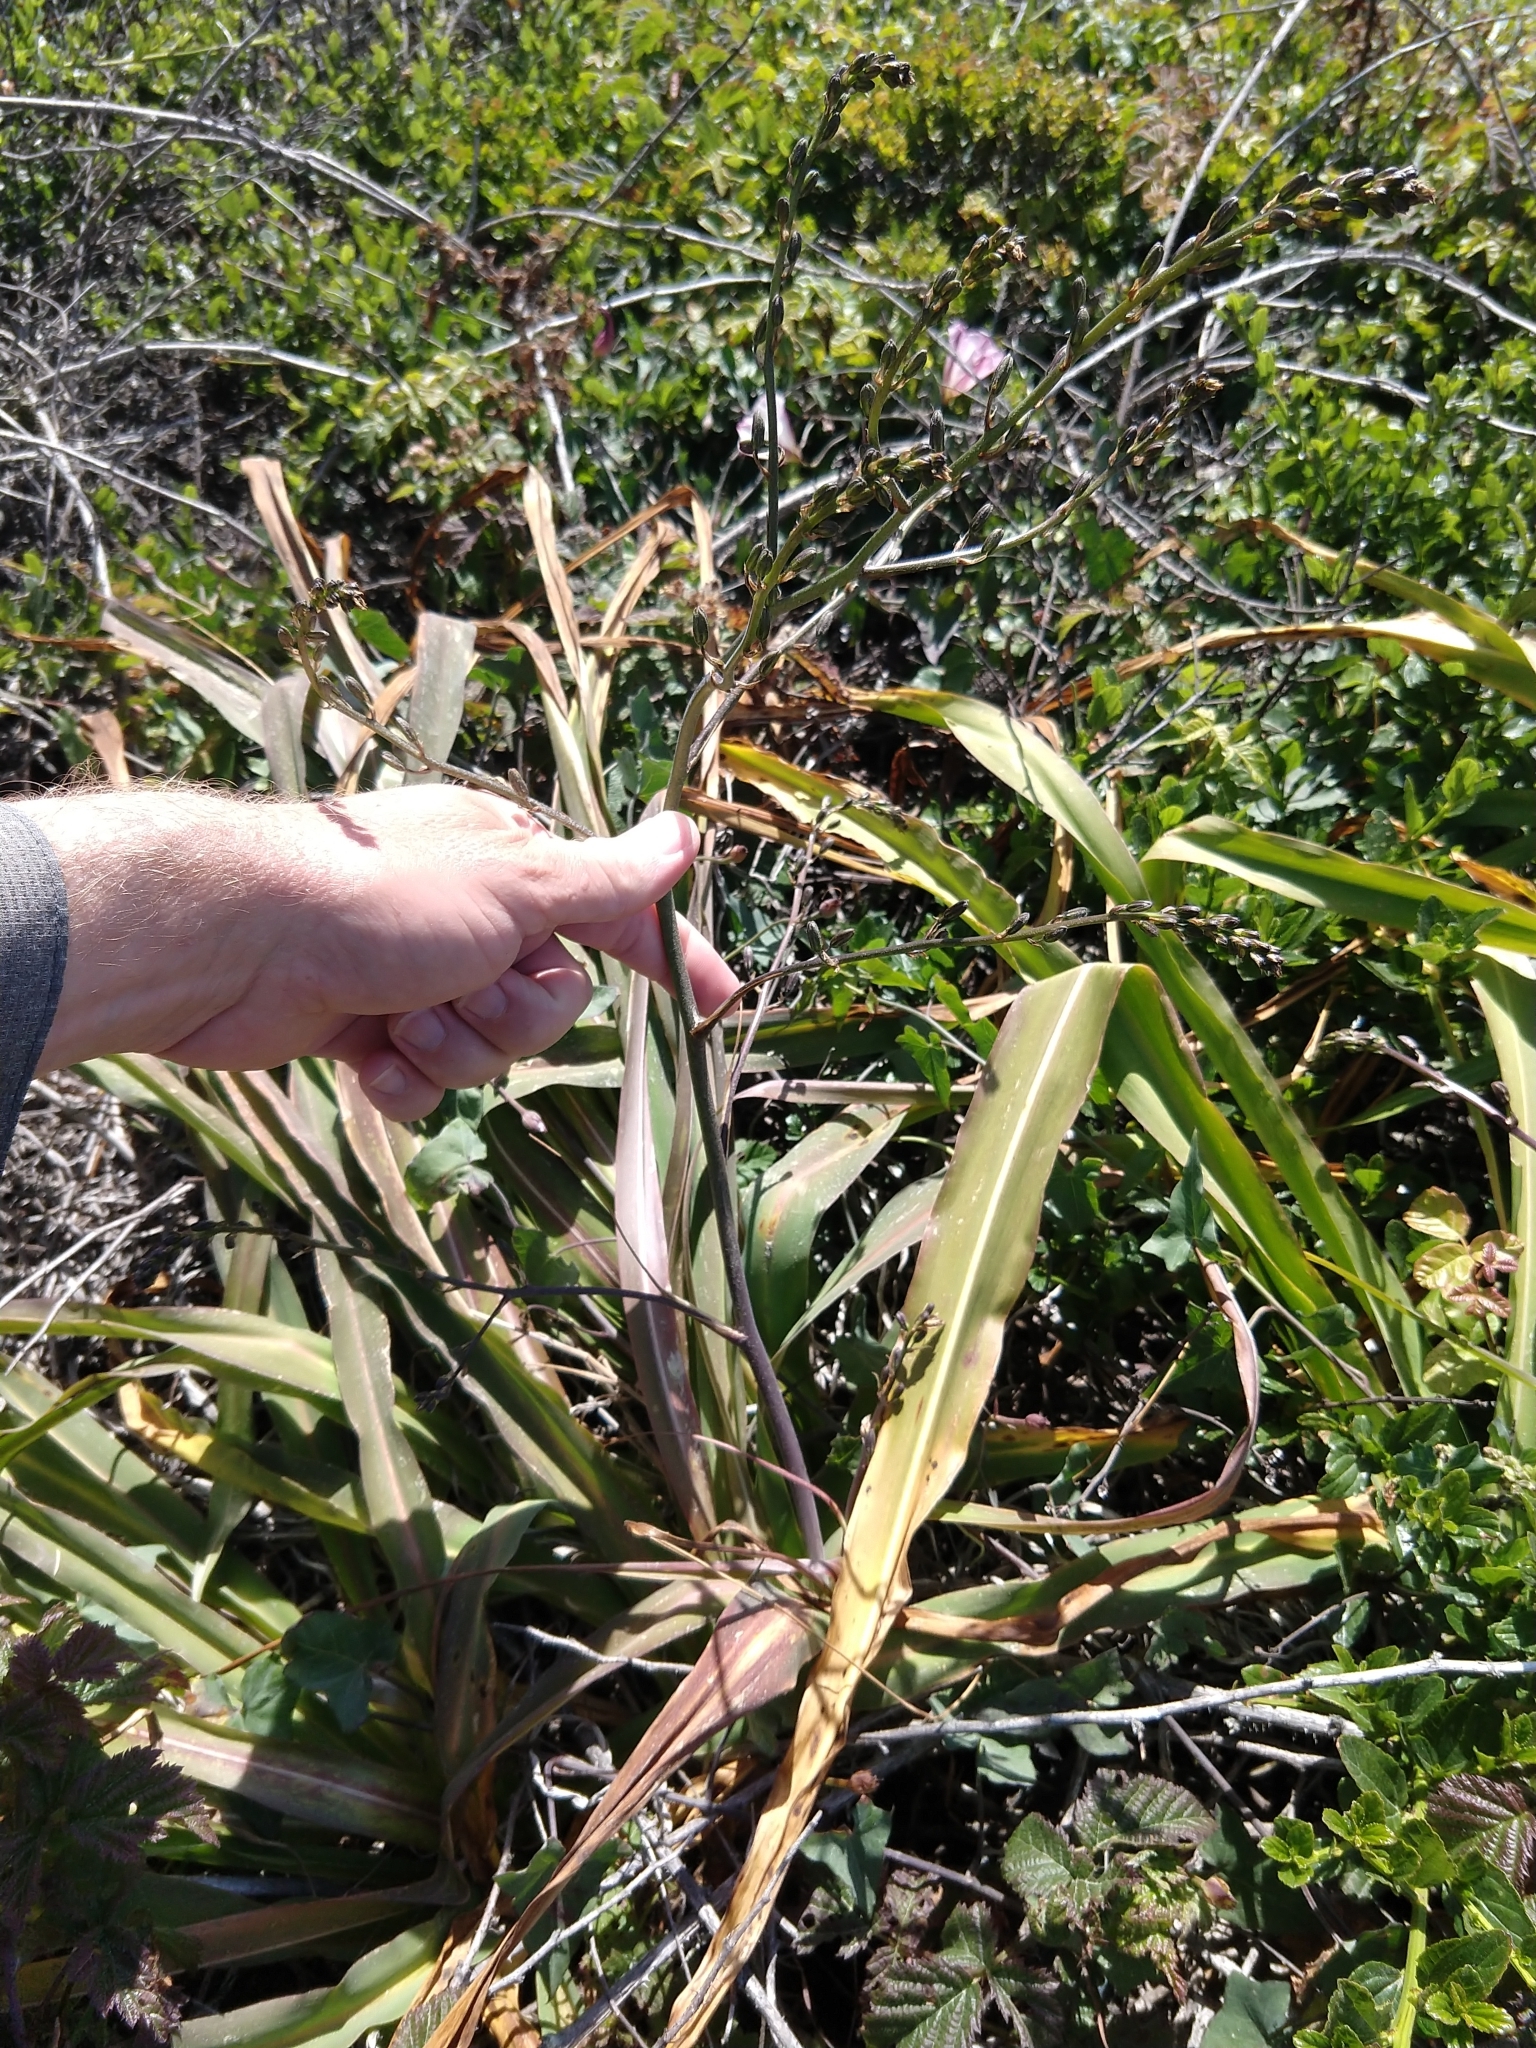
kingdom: Plantae
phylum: Tracheophyta
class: Liliopsida
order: Asparagales
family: Asparagaceae
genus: Chlorogalum
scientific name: Chlorogalum pomeridianum
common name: Amole
